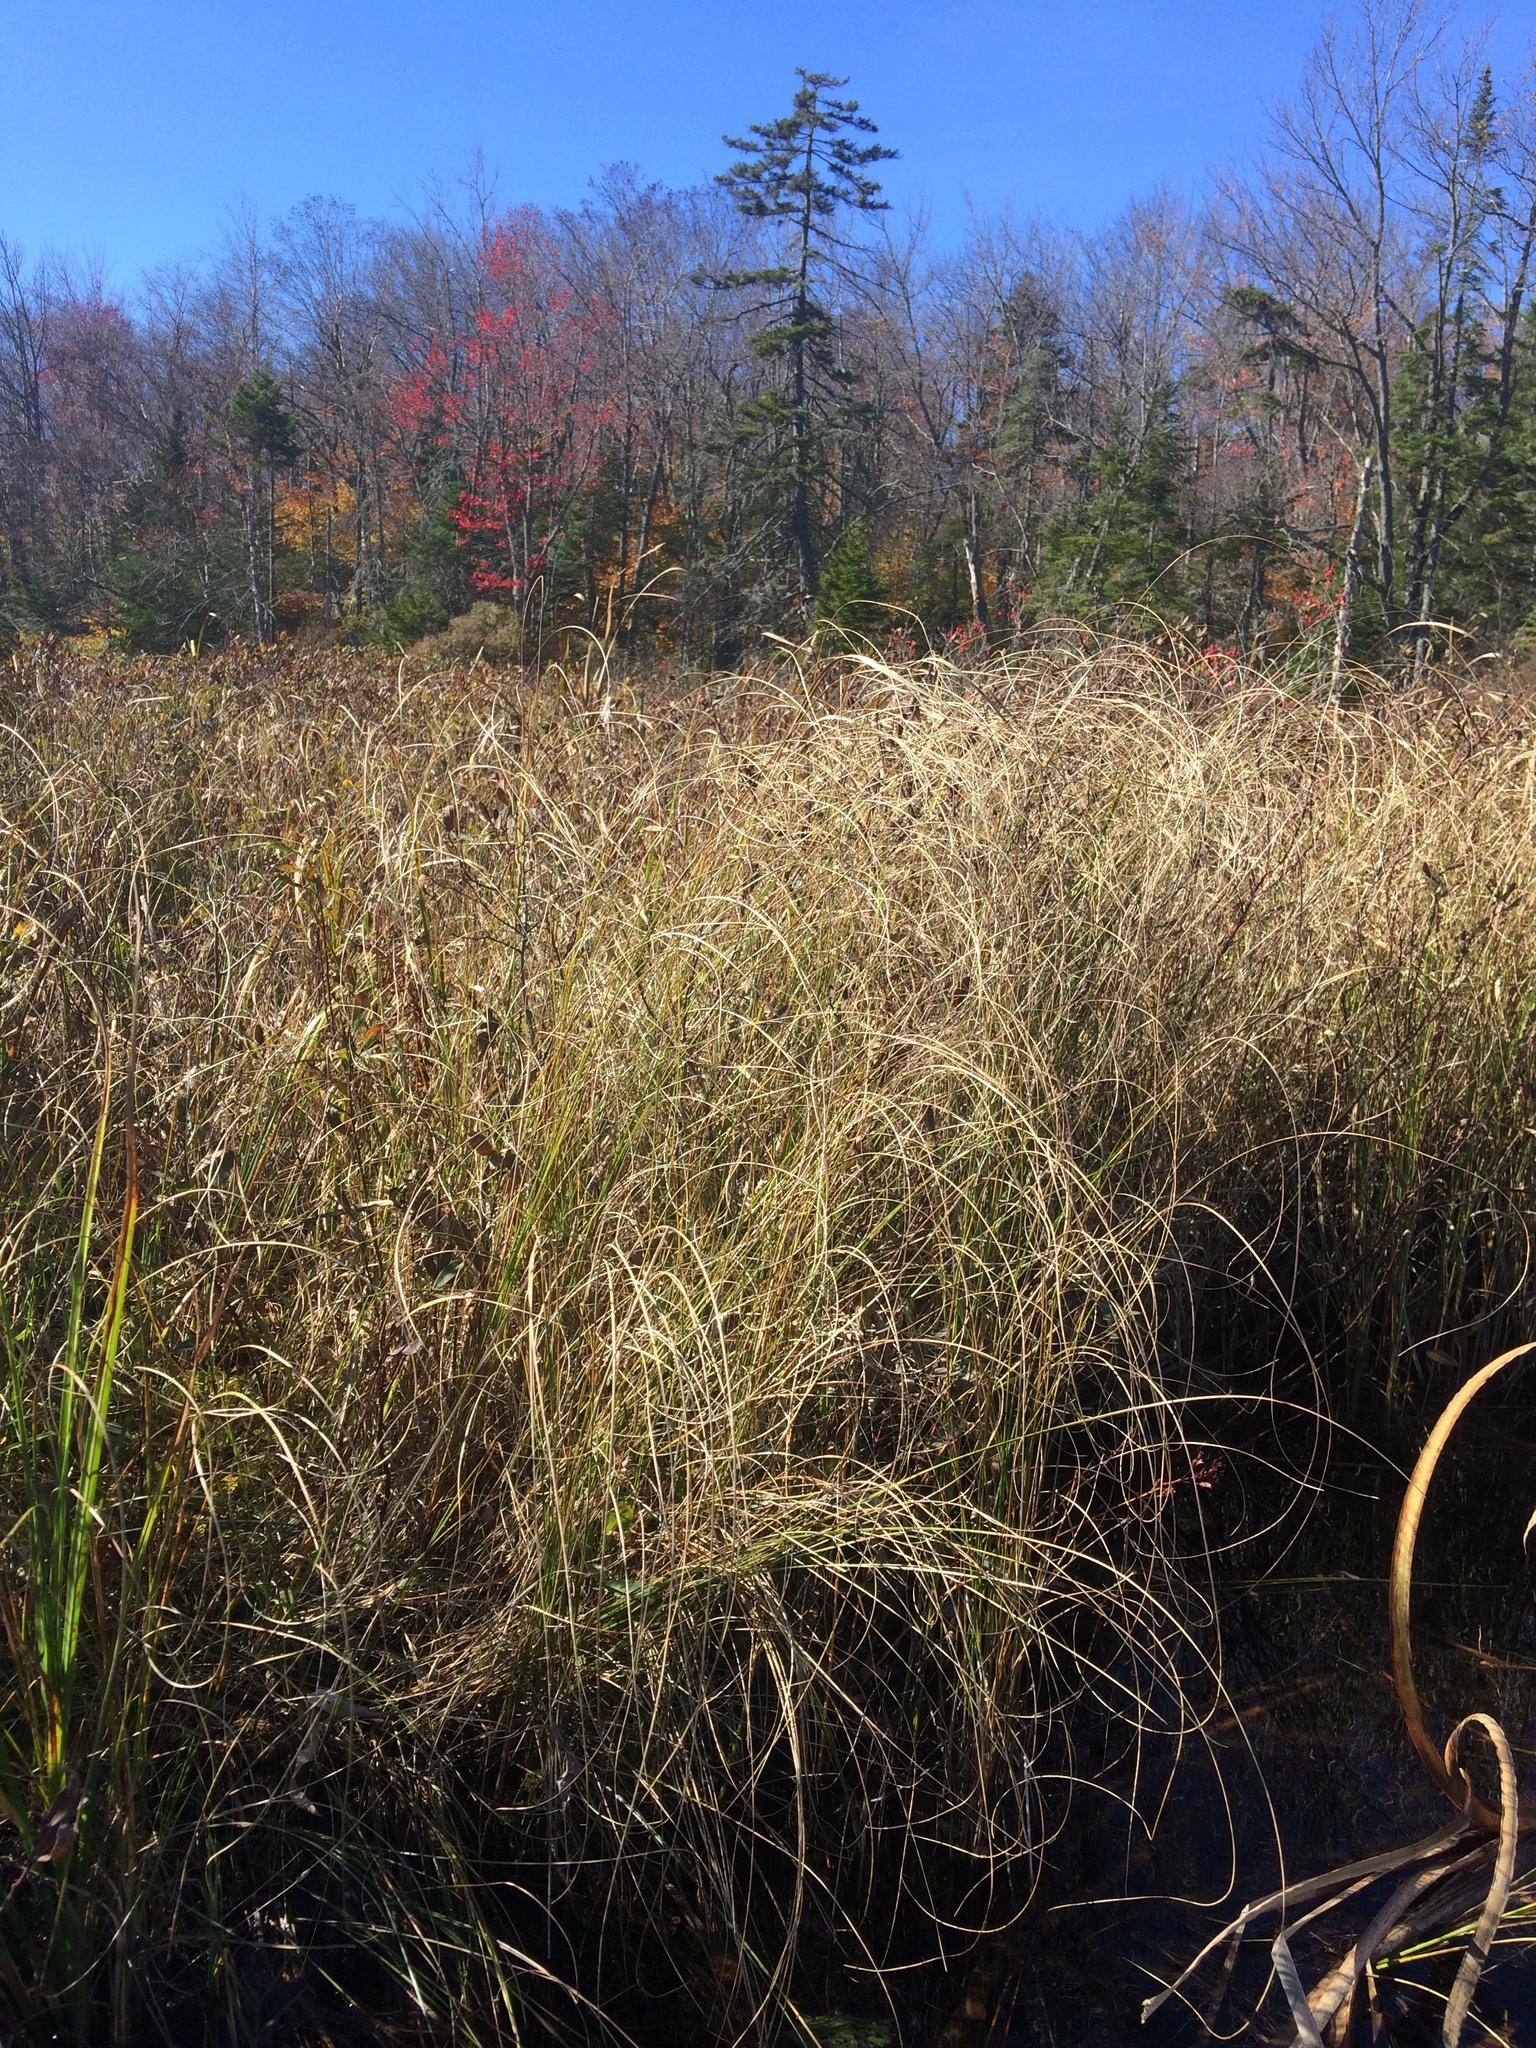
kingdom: Plantae
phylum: Tracheophyta
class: Liliopsida
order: Poales
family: Cyperaceae
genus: Carex
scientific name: Carex lasiocarpa
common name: Slender sedge
